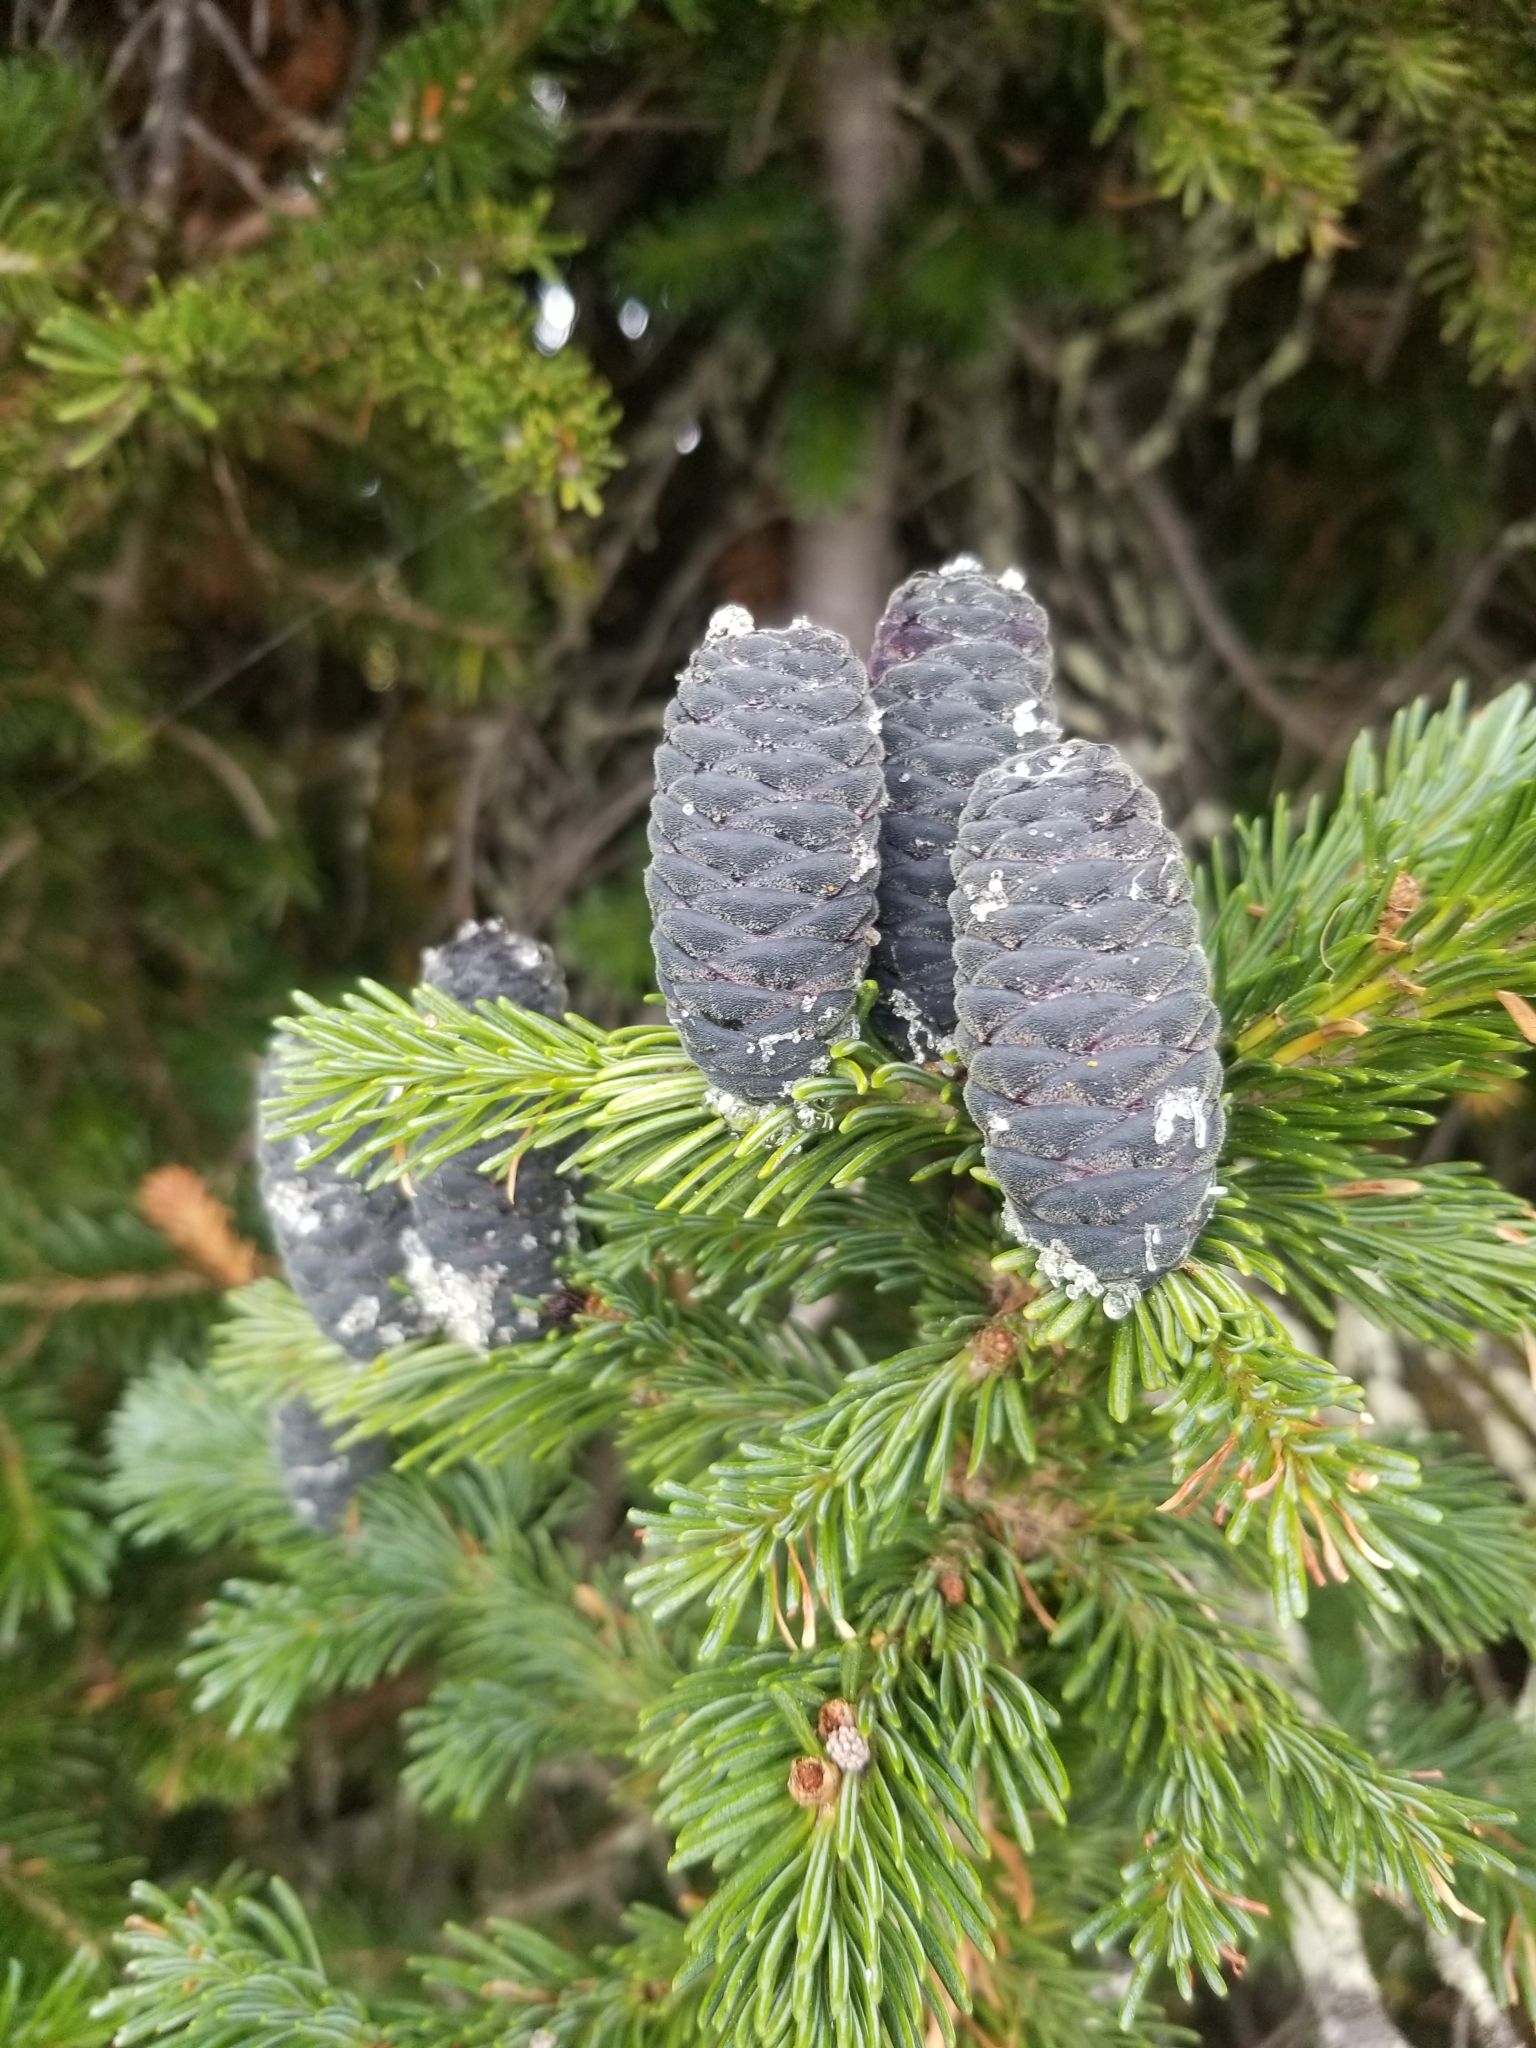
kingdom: Plantae
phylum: Tracheophyta
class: Pinopsida
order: Pinales
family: Pinaceae
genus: Abies
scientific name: Abies lasiocarpa
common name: Subalpine fir
